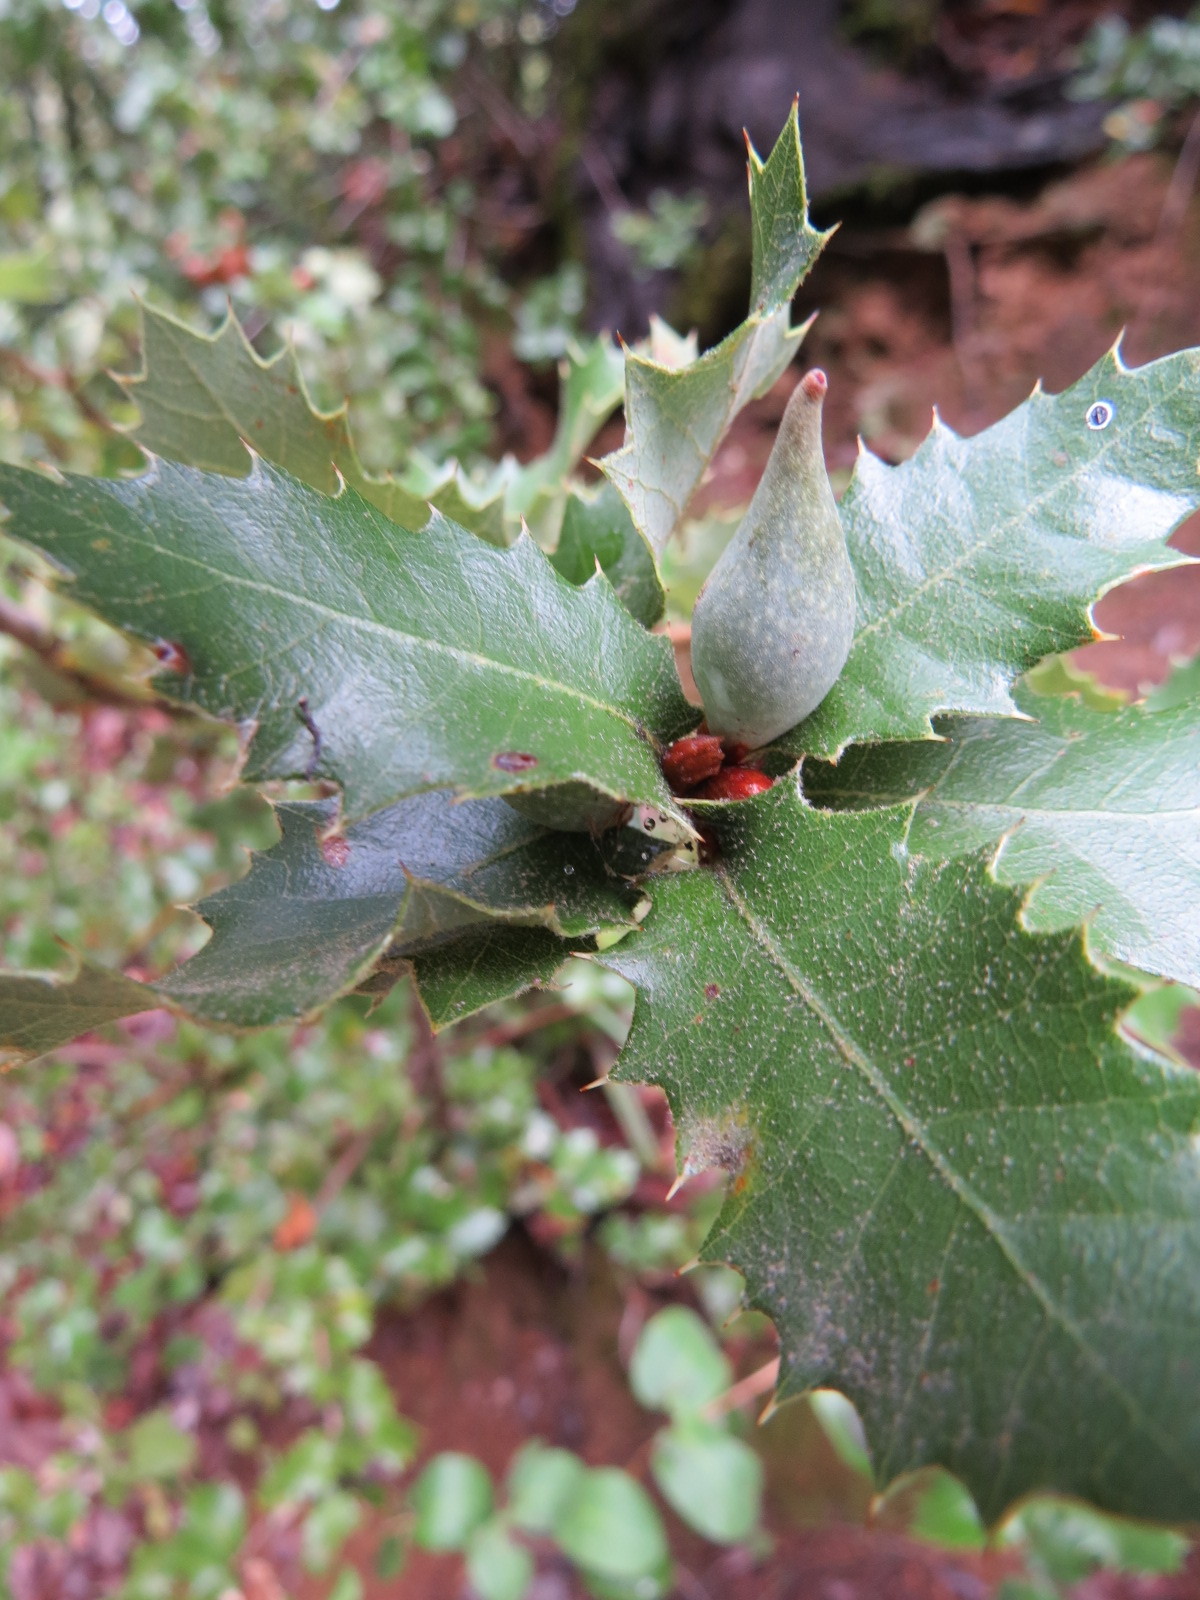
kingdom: Animalia
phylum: Arthropoda
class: Insecta
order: Hymenoptera
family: Cynipidae
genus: Heteroecus
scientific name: Heteroecus pacificus
